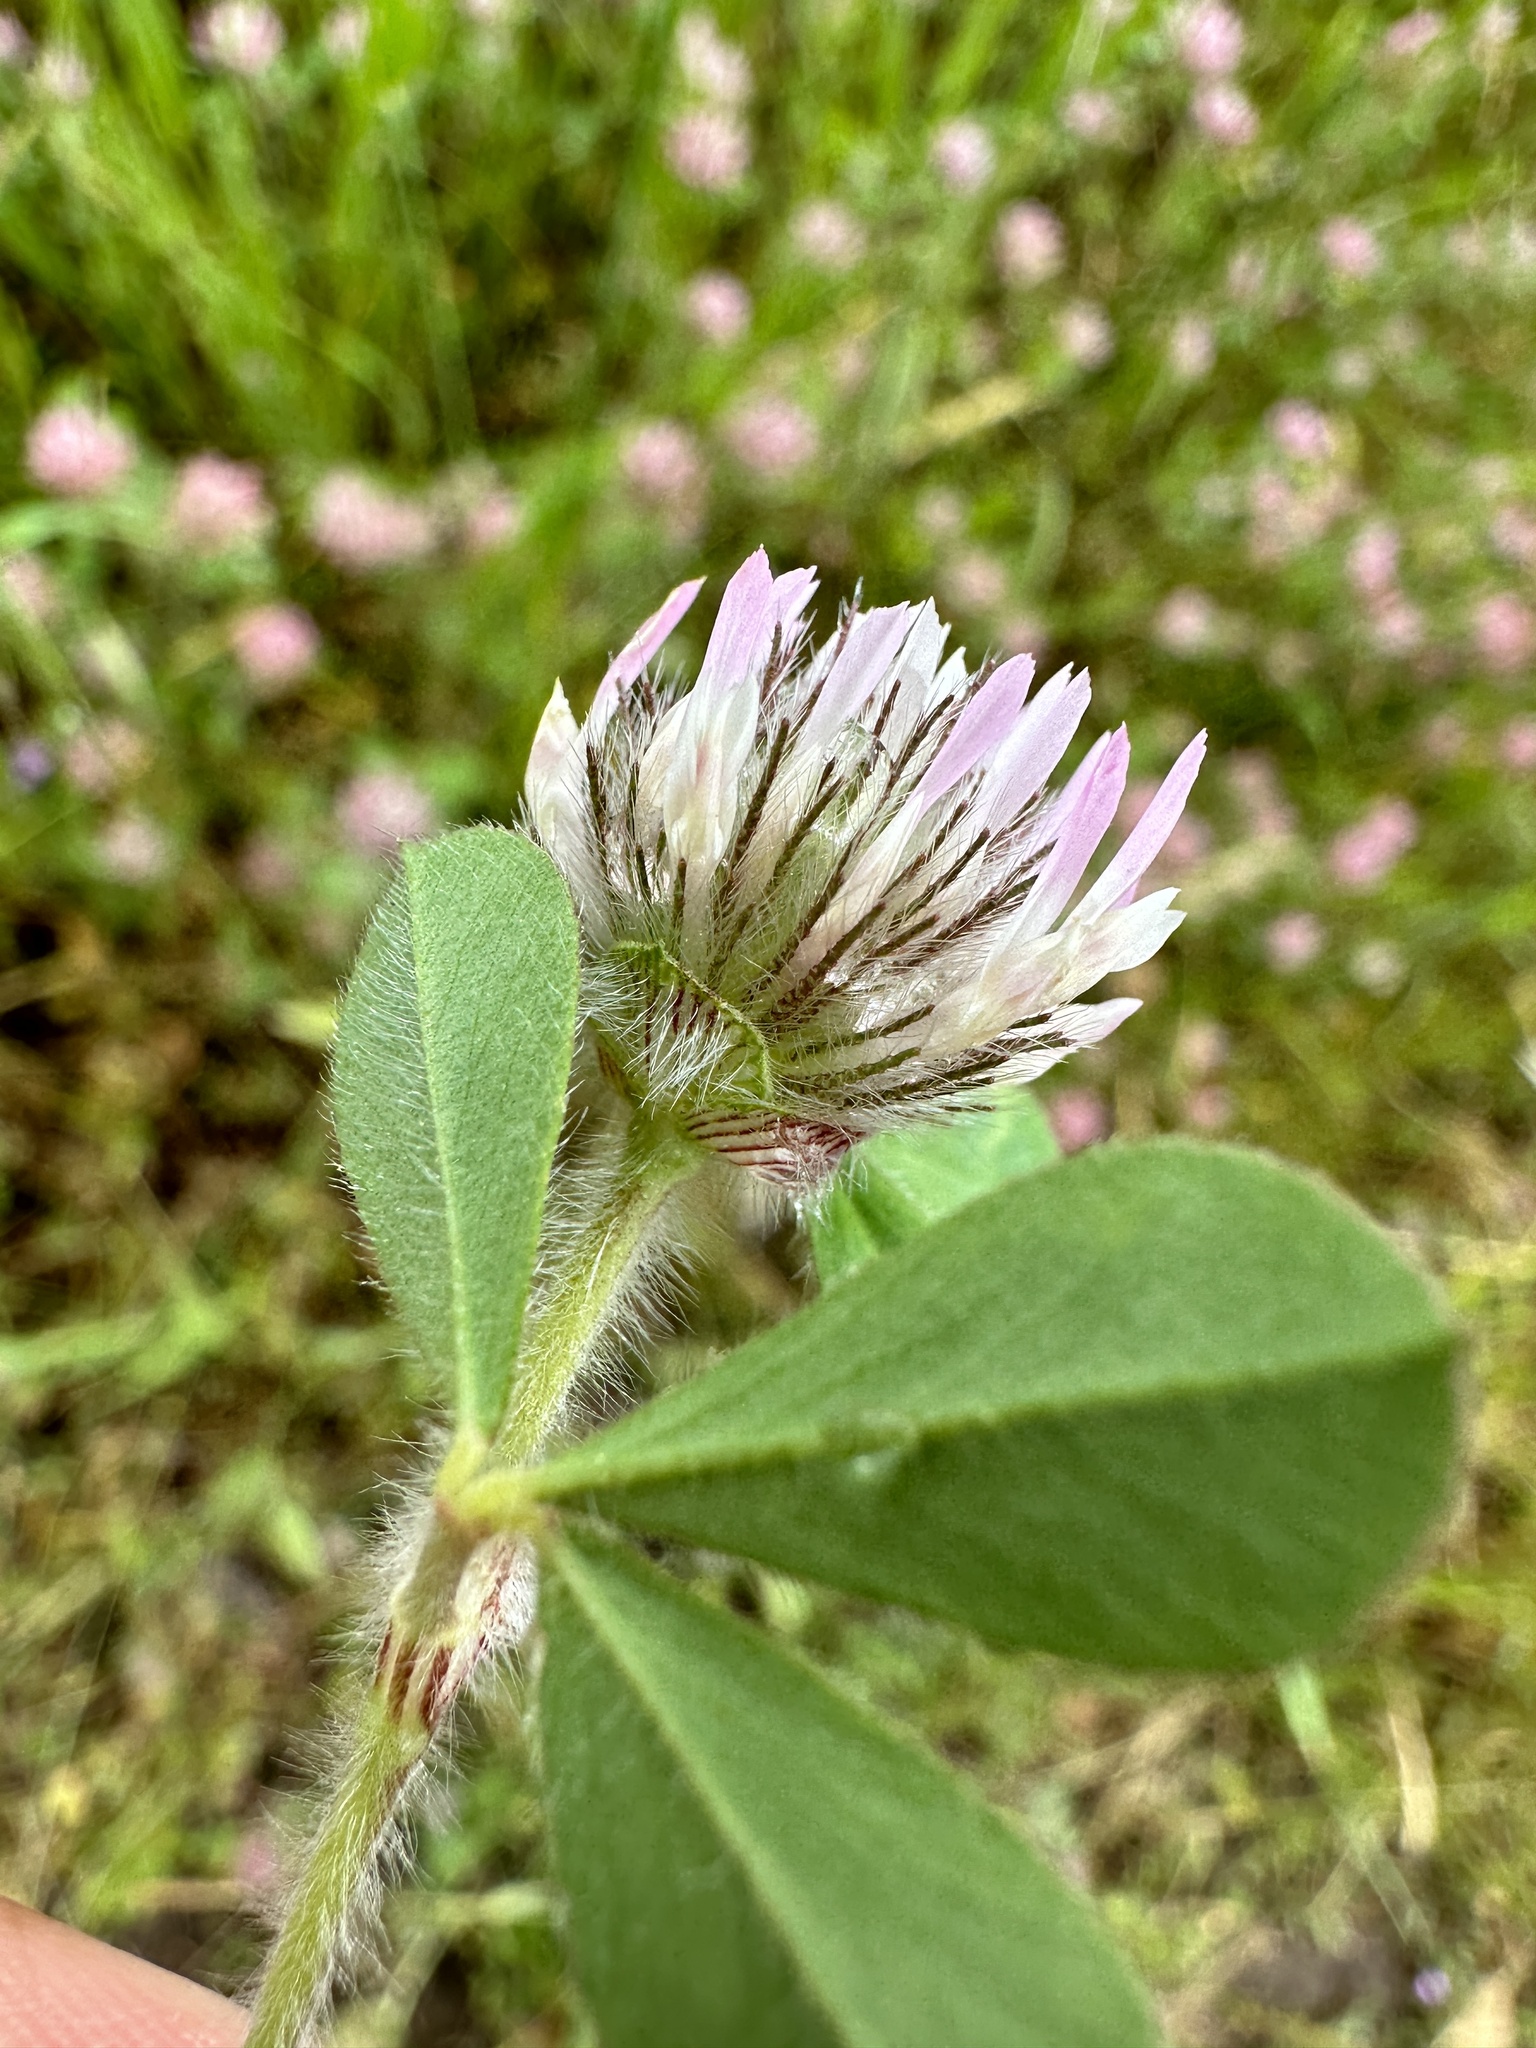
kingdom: Plantae
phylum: Tracheophyta
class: Magnoliopsida
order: Fabales
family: Fabaceae
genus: Trifolium
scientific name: Trifolium hirtum
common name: Rose clover
